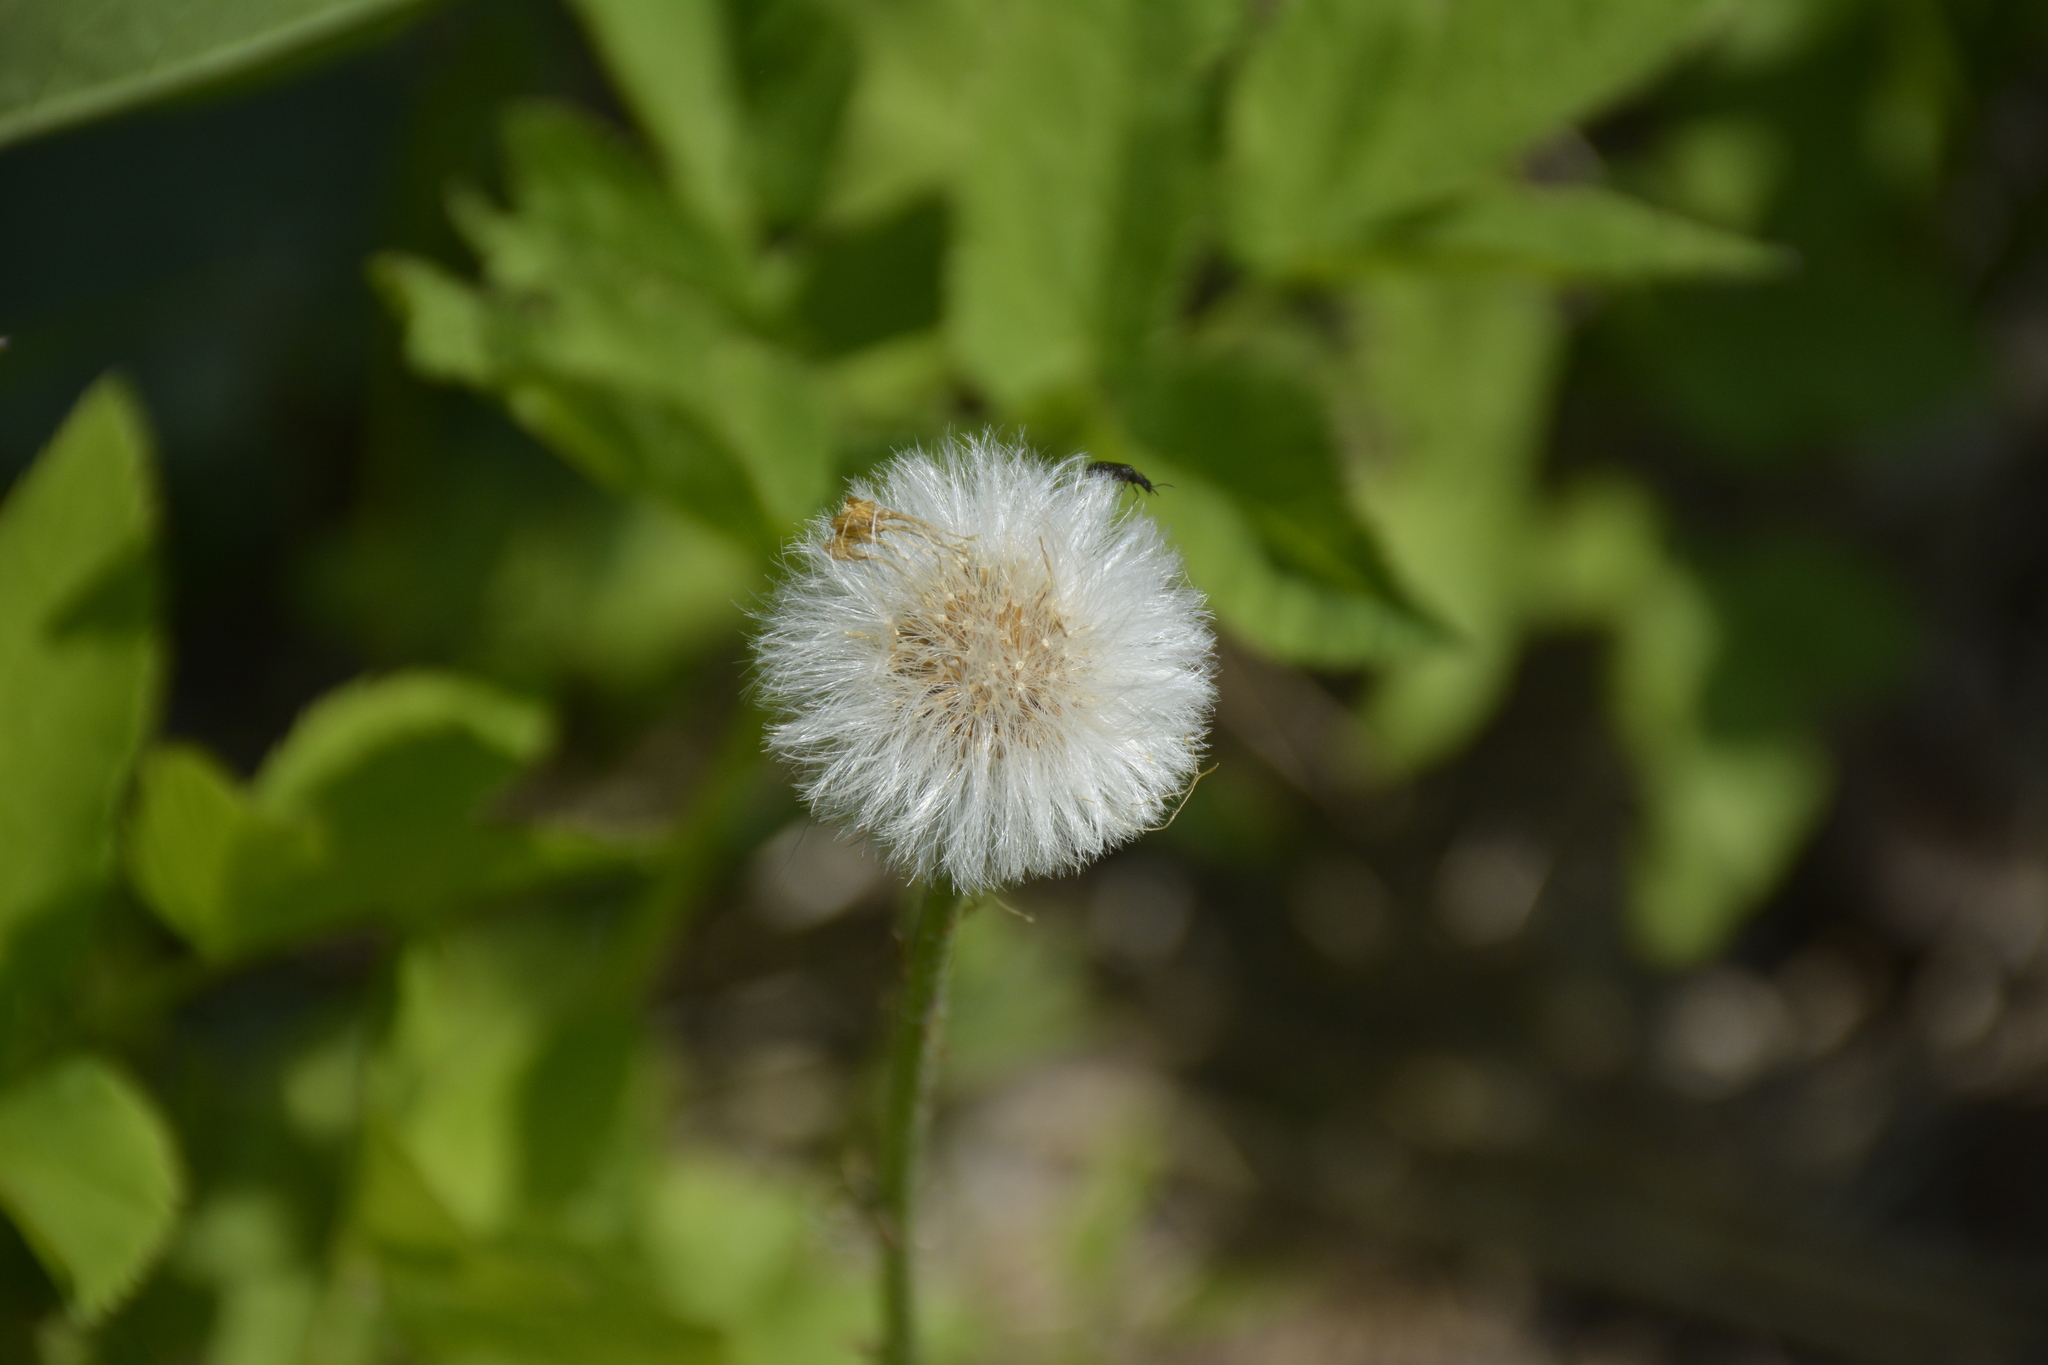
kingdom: Plantae
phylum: Tracheophyta
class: Magnoliopsida
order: Asterales
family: Asteraceae
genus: Tussilago
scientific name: Tussilago farfara
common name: Coltsfoot
